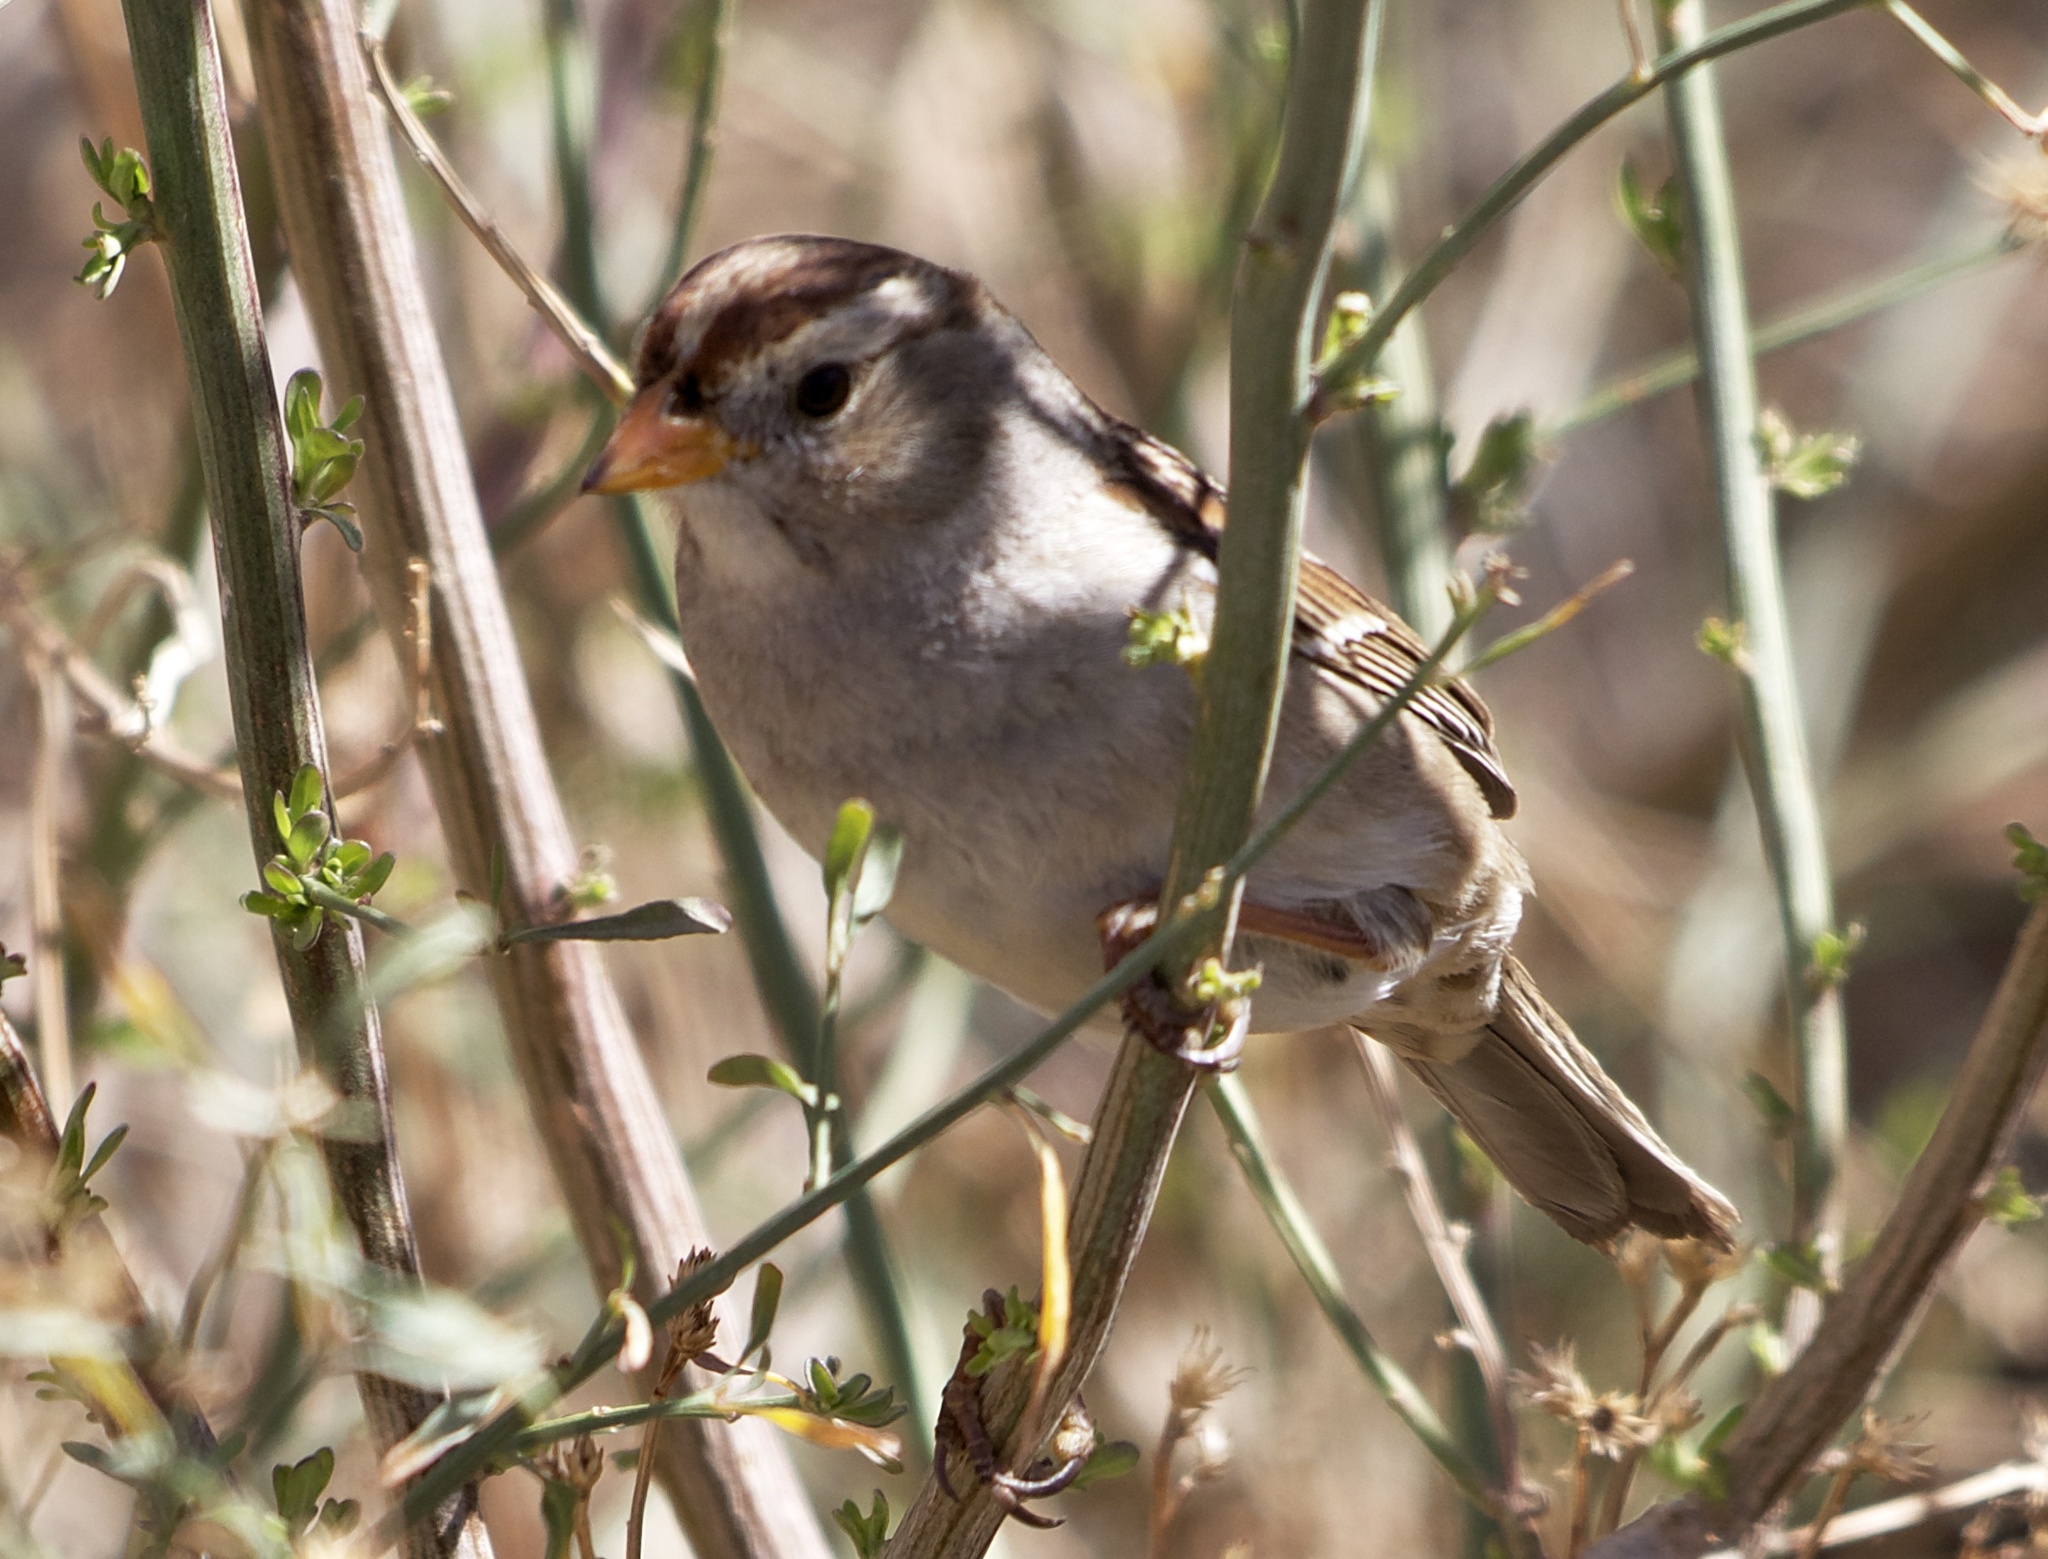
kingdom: Animalia
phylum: Chordata
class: Aves
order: Passeriformes
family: Passerellidae
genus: Zonotrichia
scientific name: Zonotrichia leucophrys
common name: White-crowned sparrow
